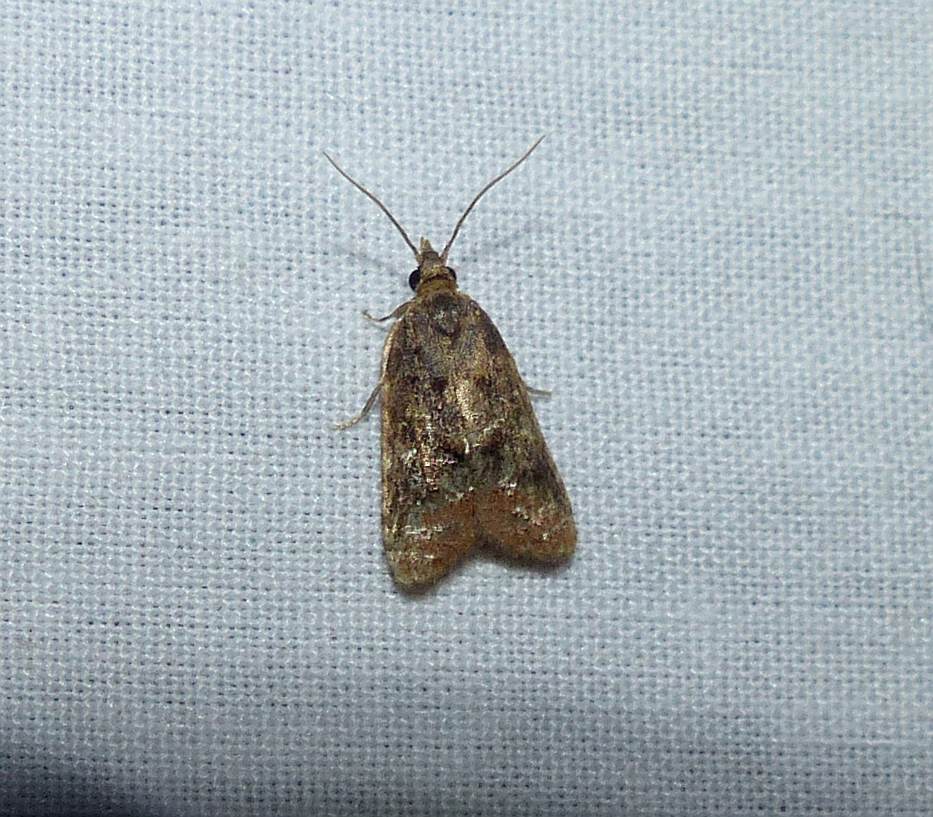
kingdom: Animalia
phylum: Arthropoda
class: Insecta
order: Lepidoptera
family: Tortricidae
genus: Platynota
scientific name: Platynota idaeusalis
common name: Tufted apple bud moth
